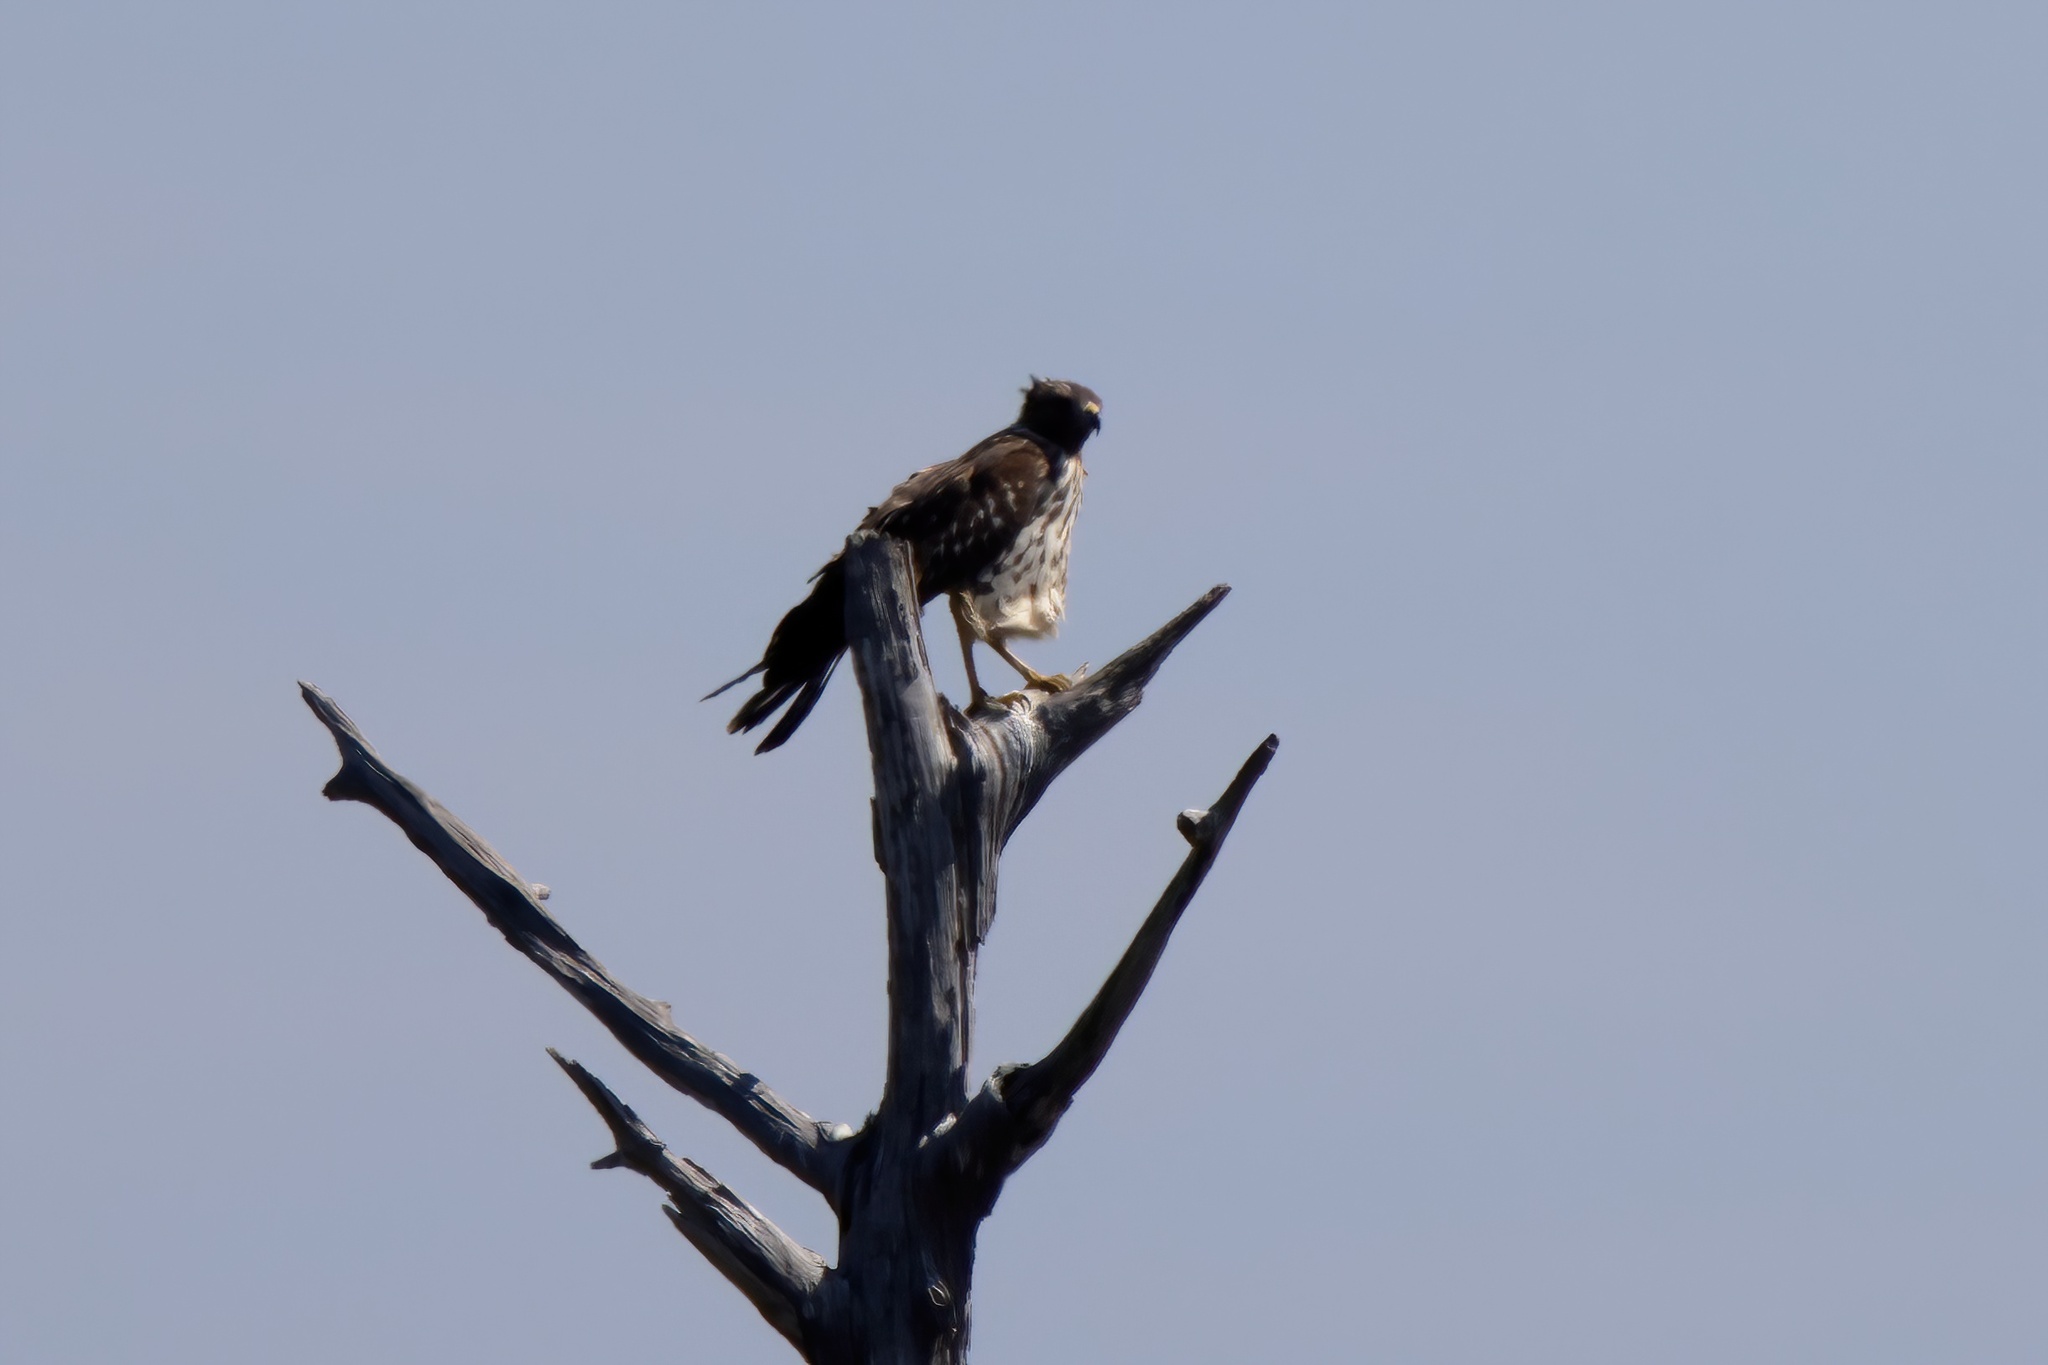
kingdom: Animalia
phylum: Chordata
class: Aves
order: Accipitriformes
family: Accipitridae
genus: Buteo
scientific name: Buteo lineatus
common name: Red-shouldered hawk
